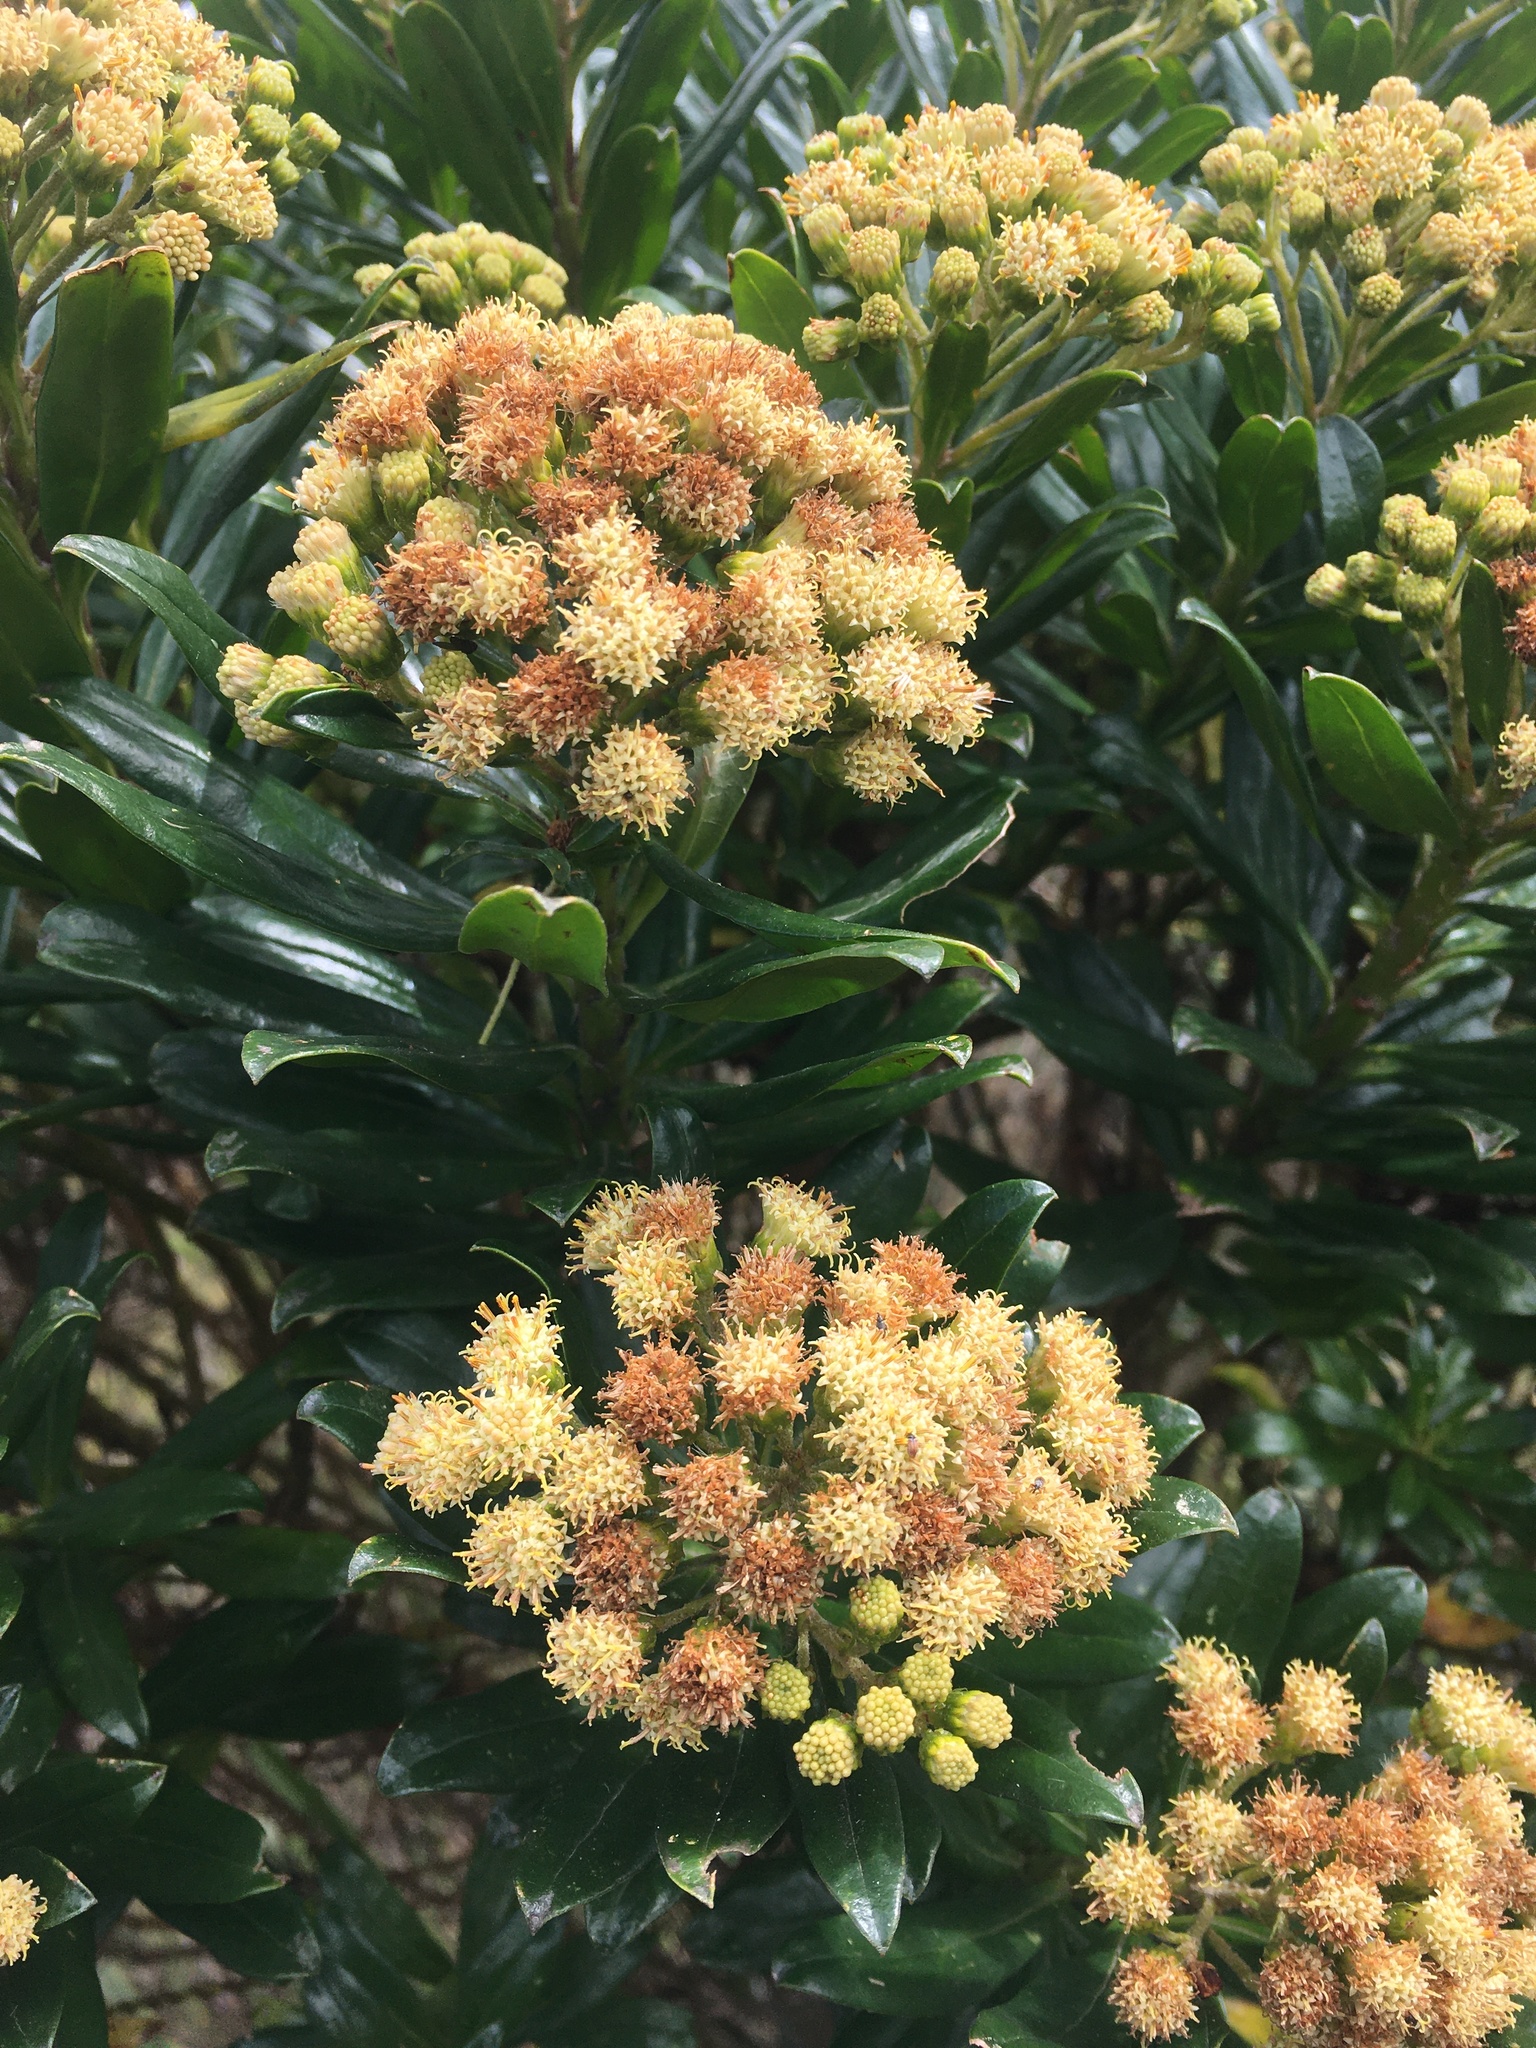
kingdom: Plantae
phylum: Tracheophyta
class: Magnoliopsida
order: Asterales
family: Asteraceae
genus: Monticalia
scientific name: Monticalia pulchella
